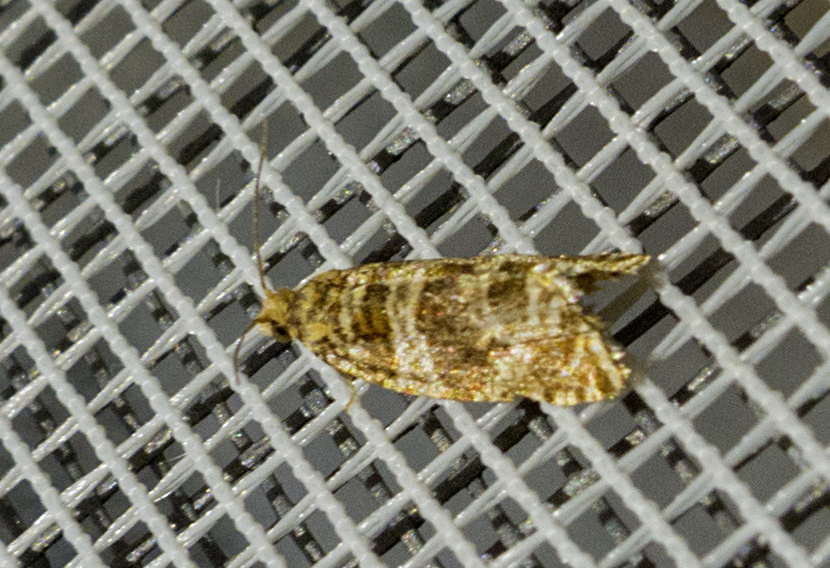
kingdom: Animalia
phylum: Arthropoda
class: Insecta
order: Lepidoptera
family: Tortricidae
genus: Syricoris
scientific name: Syricoris rivulana
